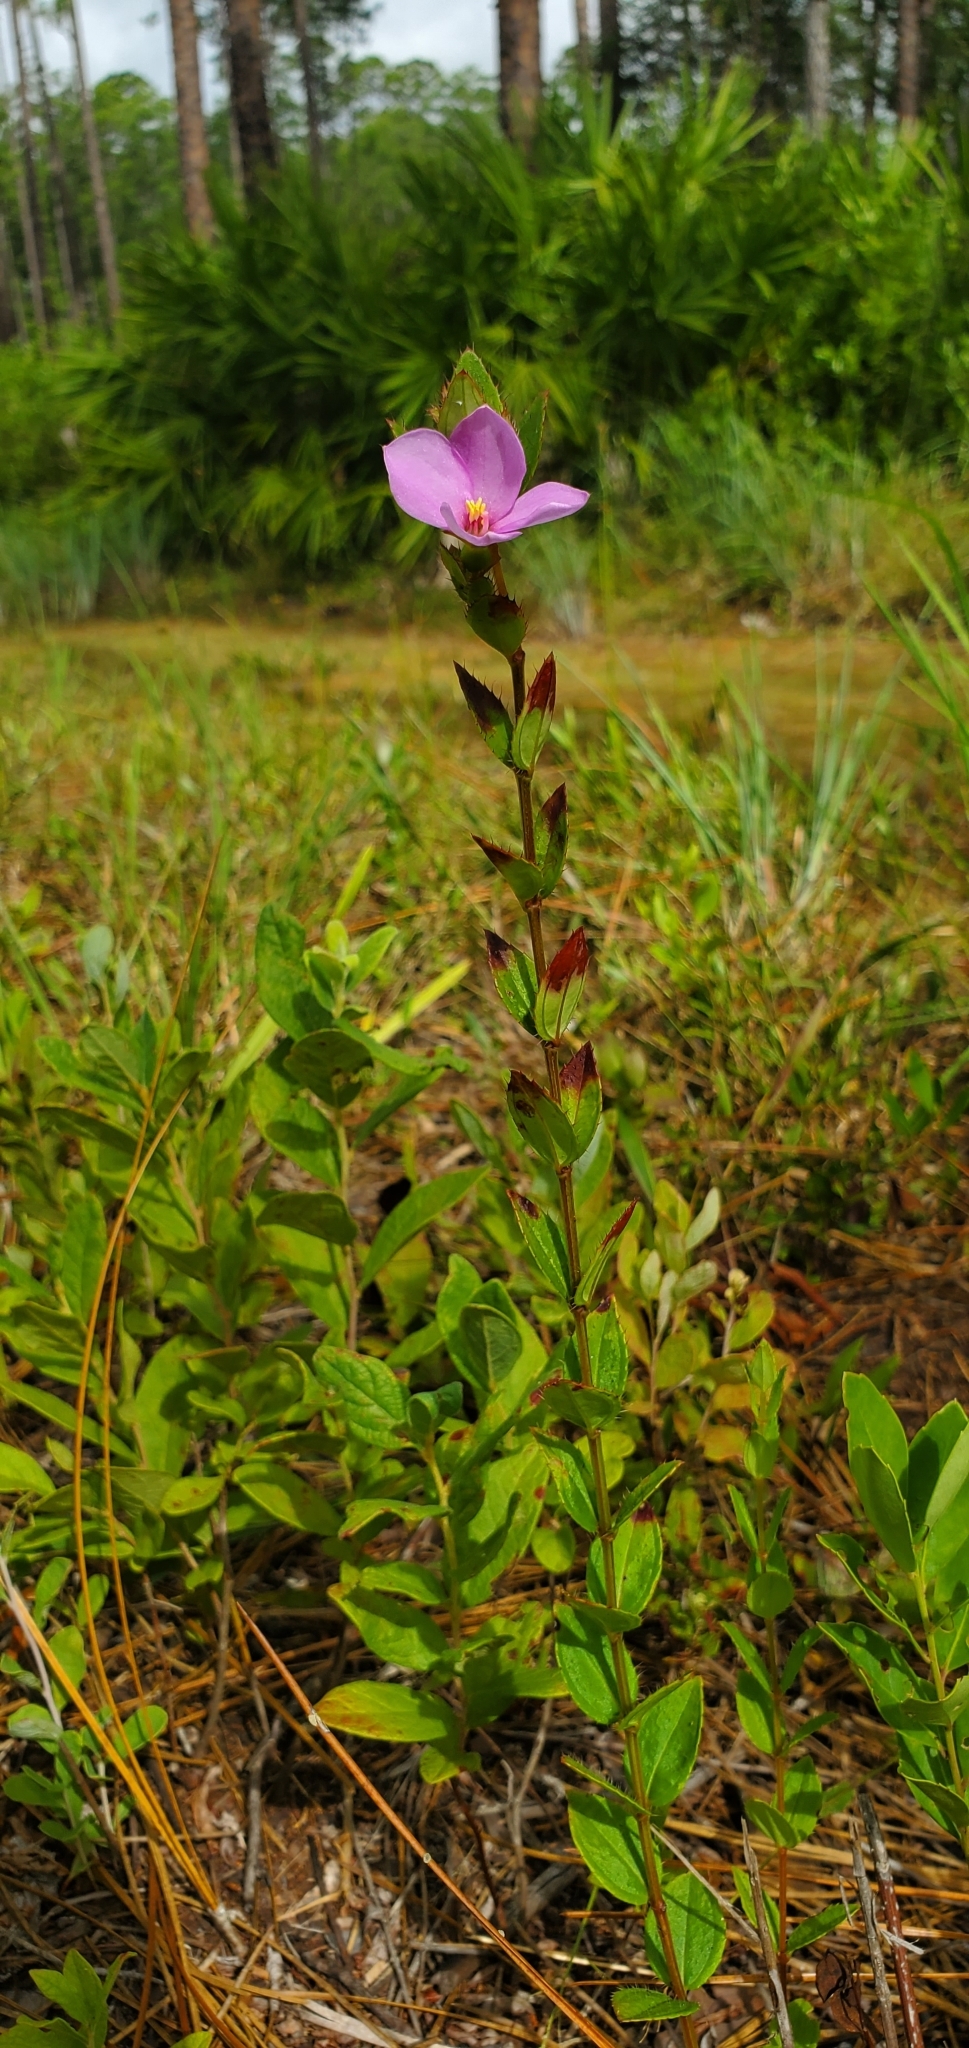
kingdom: Plantae
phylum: Tracheophyta
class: Magnoliopsida
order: Myrtales
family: Melastomataceae
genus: Rhexia
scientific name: Rhexia petiolata
